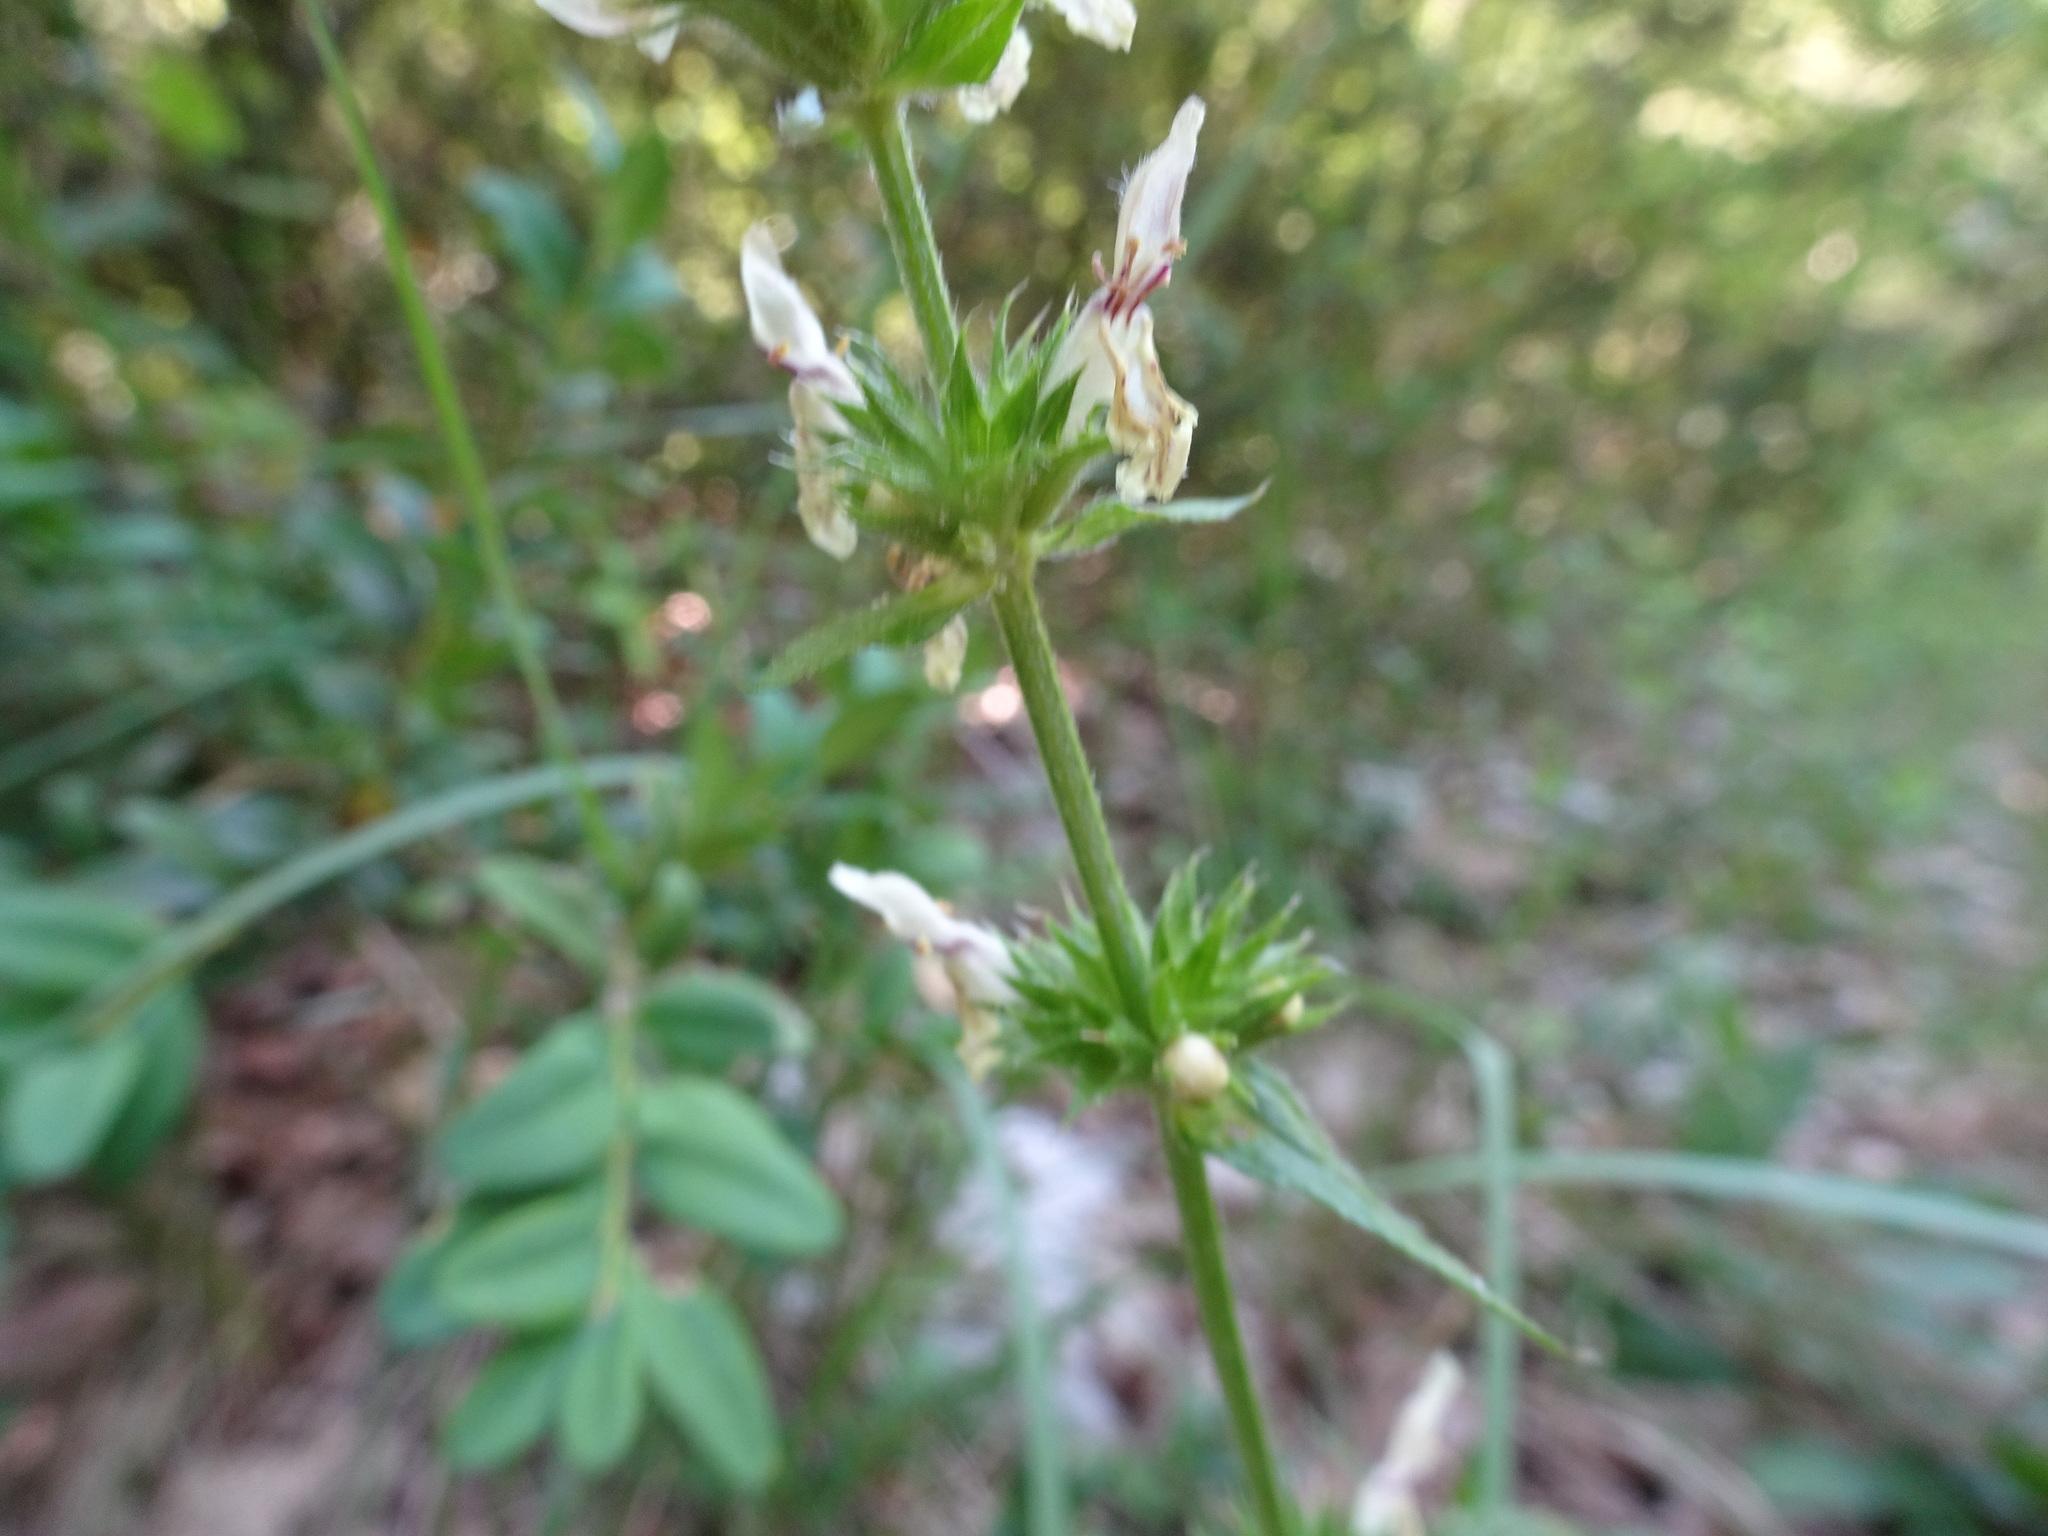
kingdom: Plantae
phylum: Tracheophyta
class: Magnoliopsida
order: Lamiales
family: Lamiaceae
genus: Stachys
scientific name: Stachys recta
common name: Perennial yellow-woundwort
